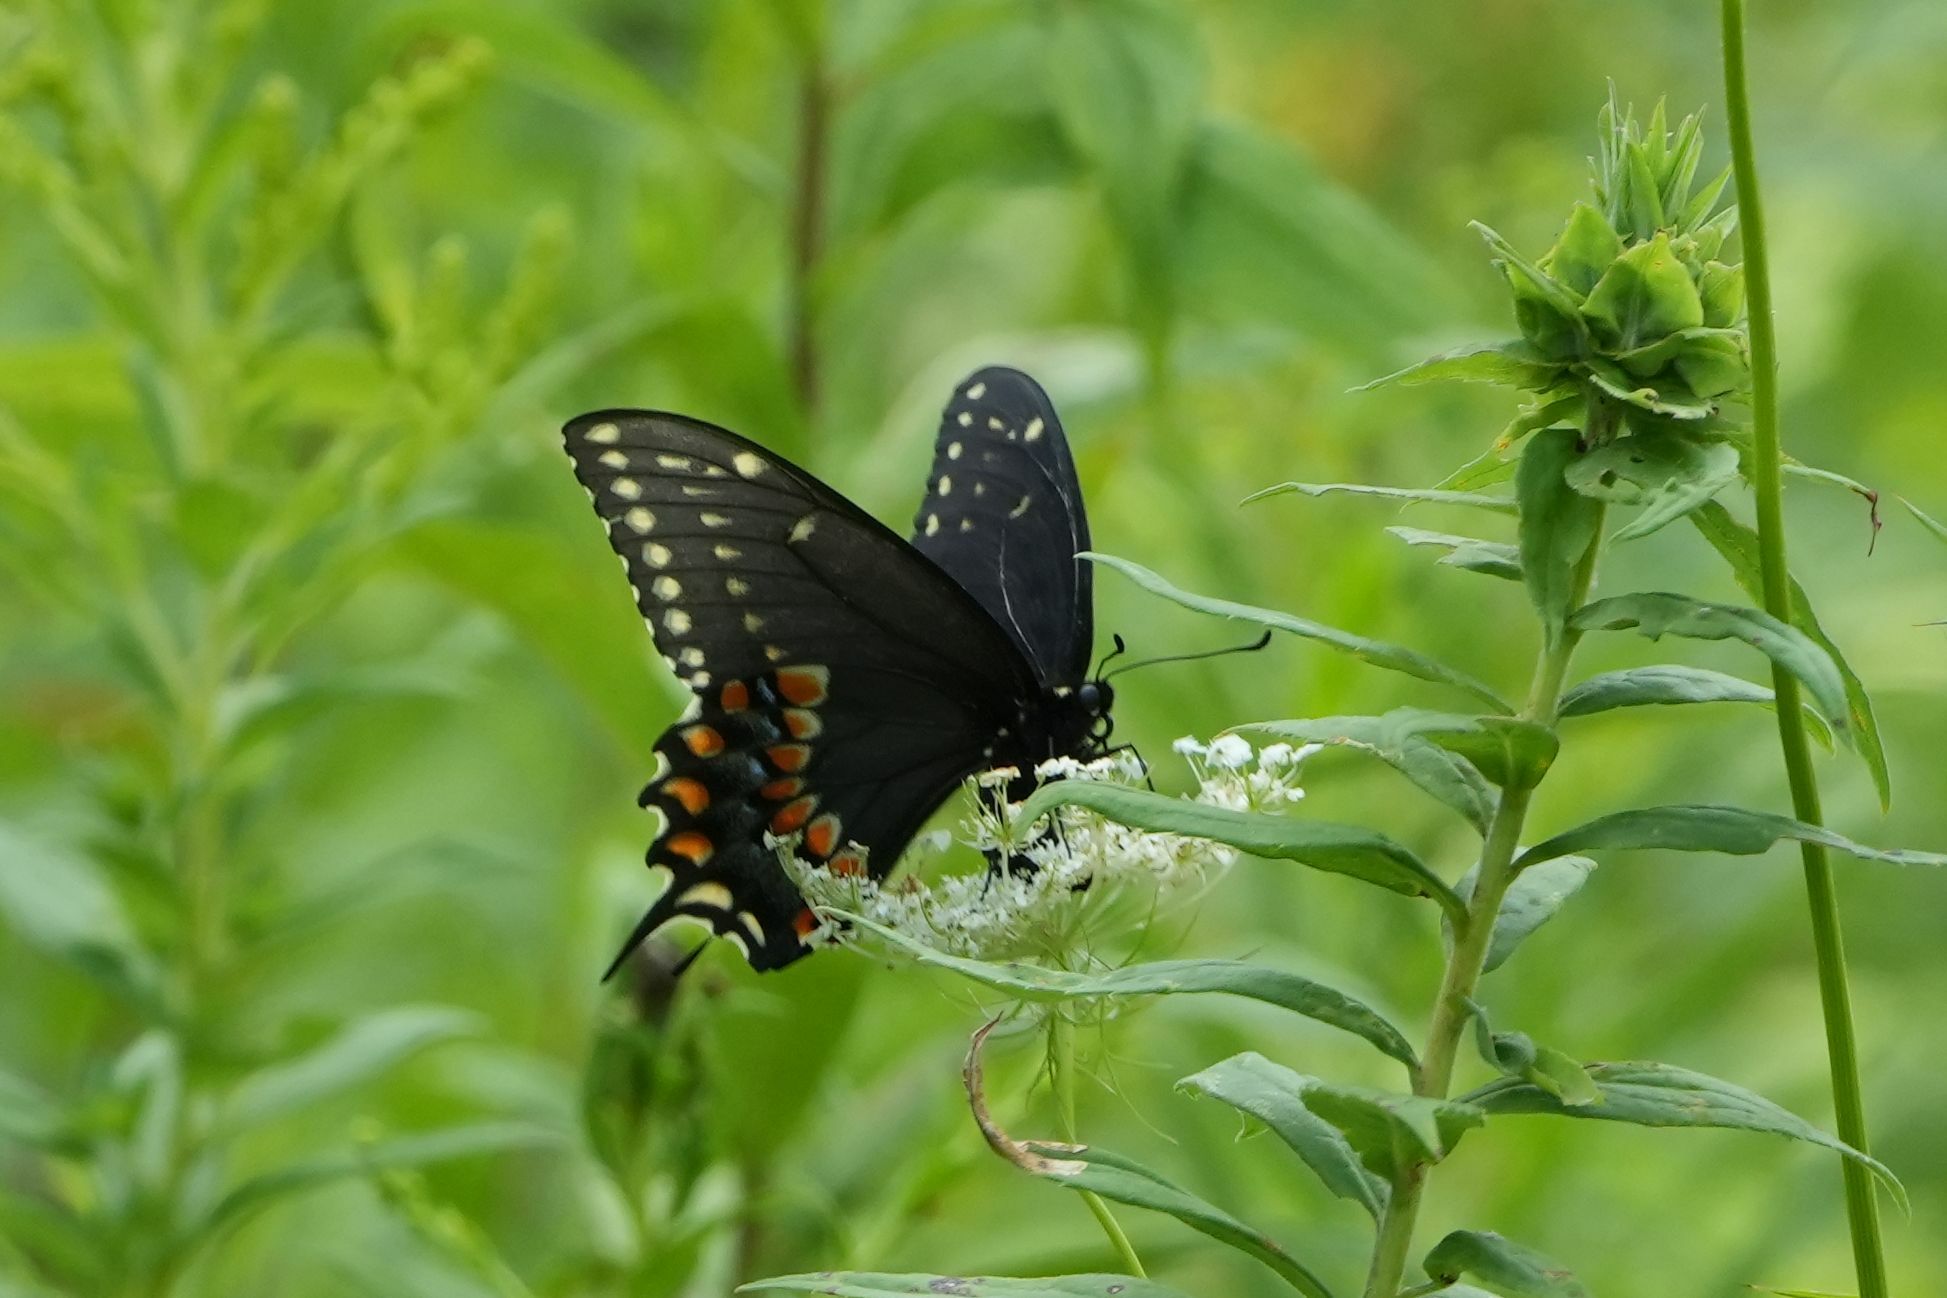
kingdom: Animalia
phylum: Arthropoda
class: Insecta
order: Lepidoptera
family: Papilionidae
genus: Papilio
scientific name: Papilio polyxenes
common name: Black swallowtail
